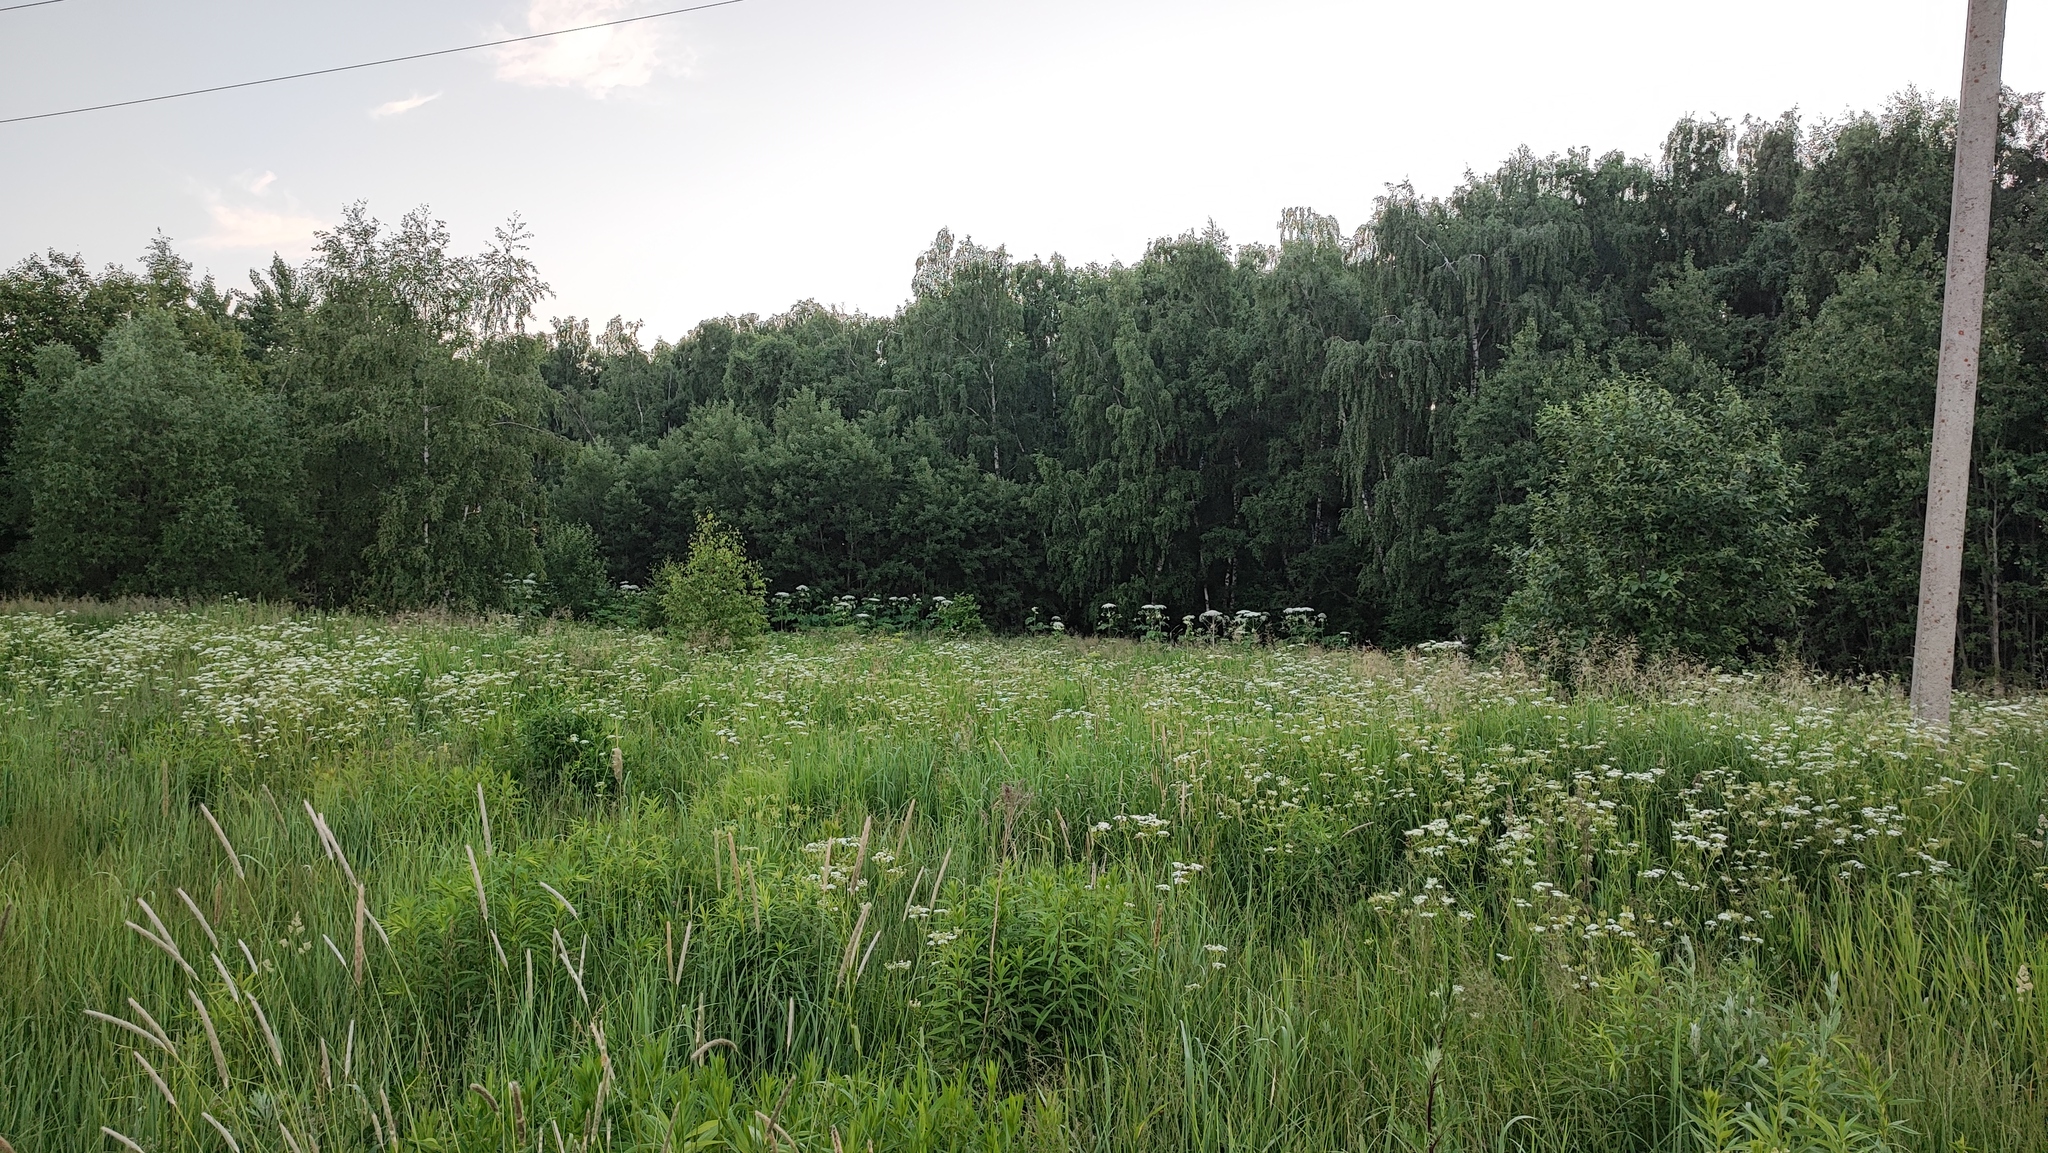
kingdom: Plantae
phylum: Tracheophyta
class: Magnoliopsida
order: Apiales
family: Apiaceae
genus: Heracleum
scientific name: Heracleum sosnowskyi
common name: Sosnowsky's hogweed
